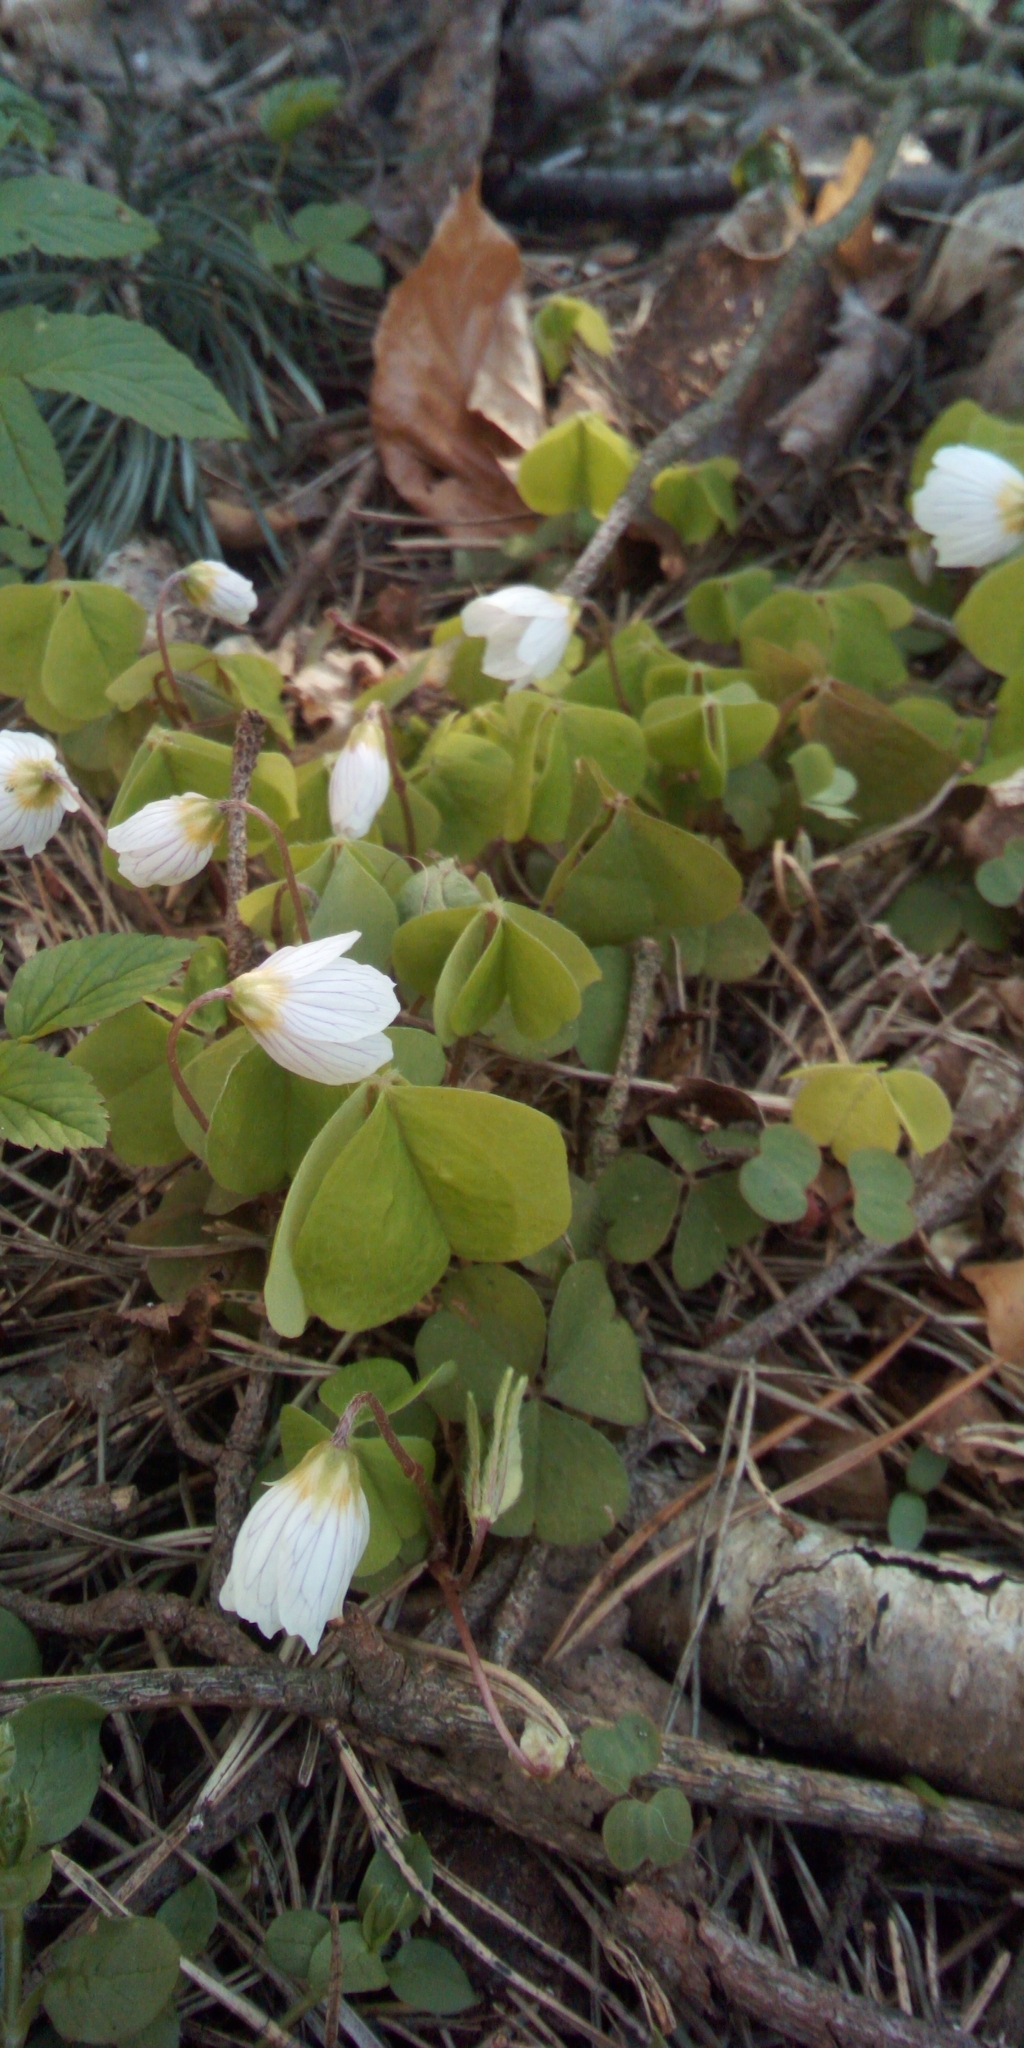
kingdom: Plantae
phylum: Tracheophyta
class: Magnoliopsida
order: Oxalidales
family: Oxalidaceae
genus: Oxalis
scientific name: Oxalis acetosella
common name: Wood-sorrel
